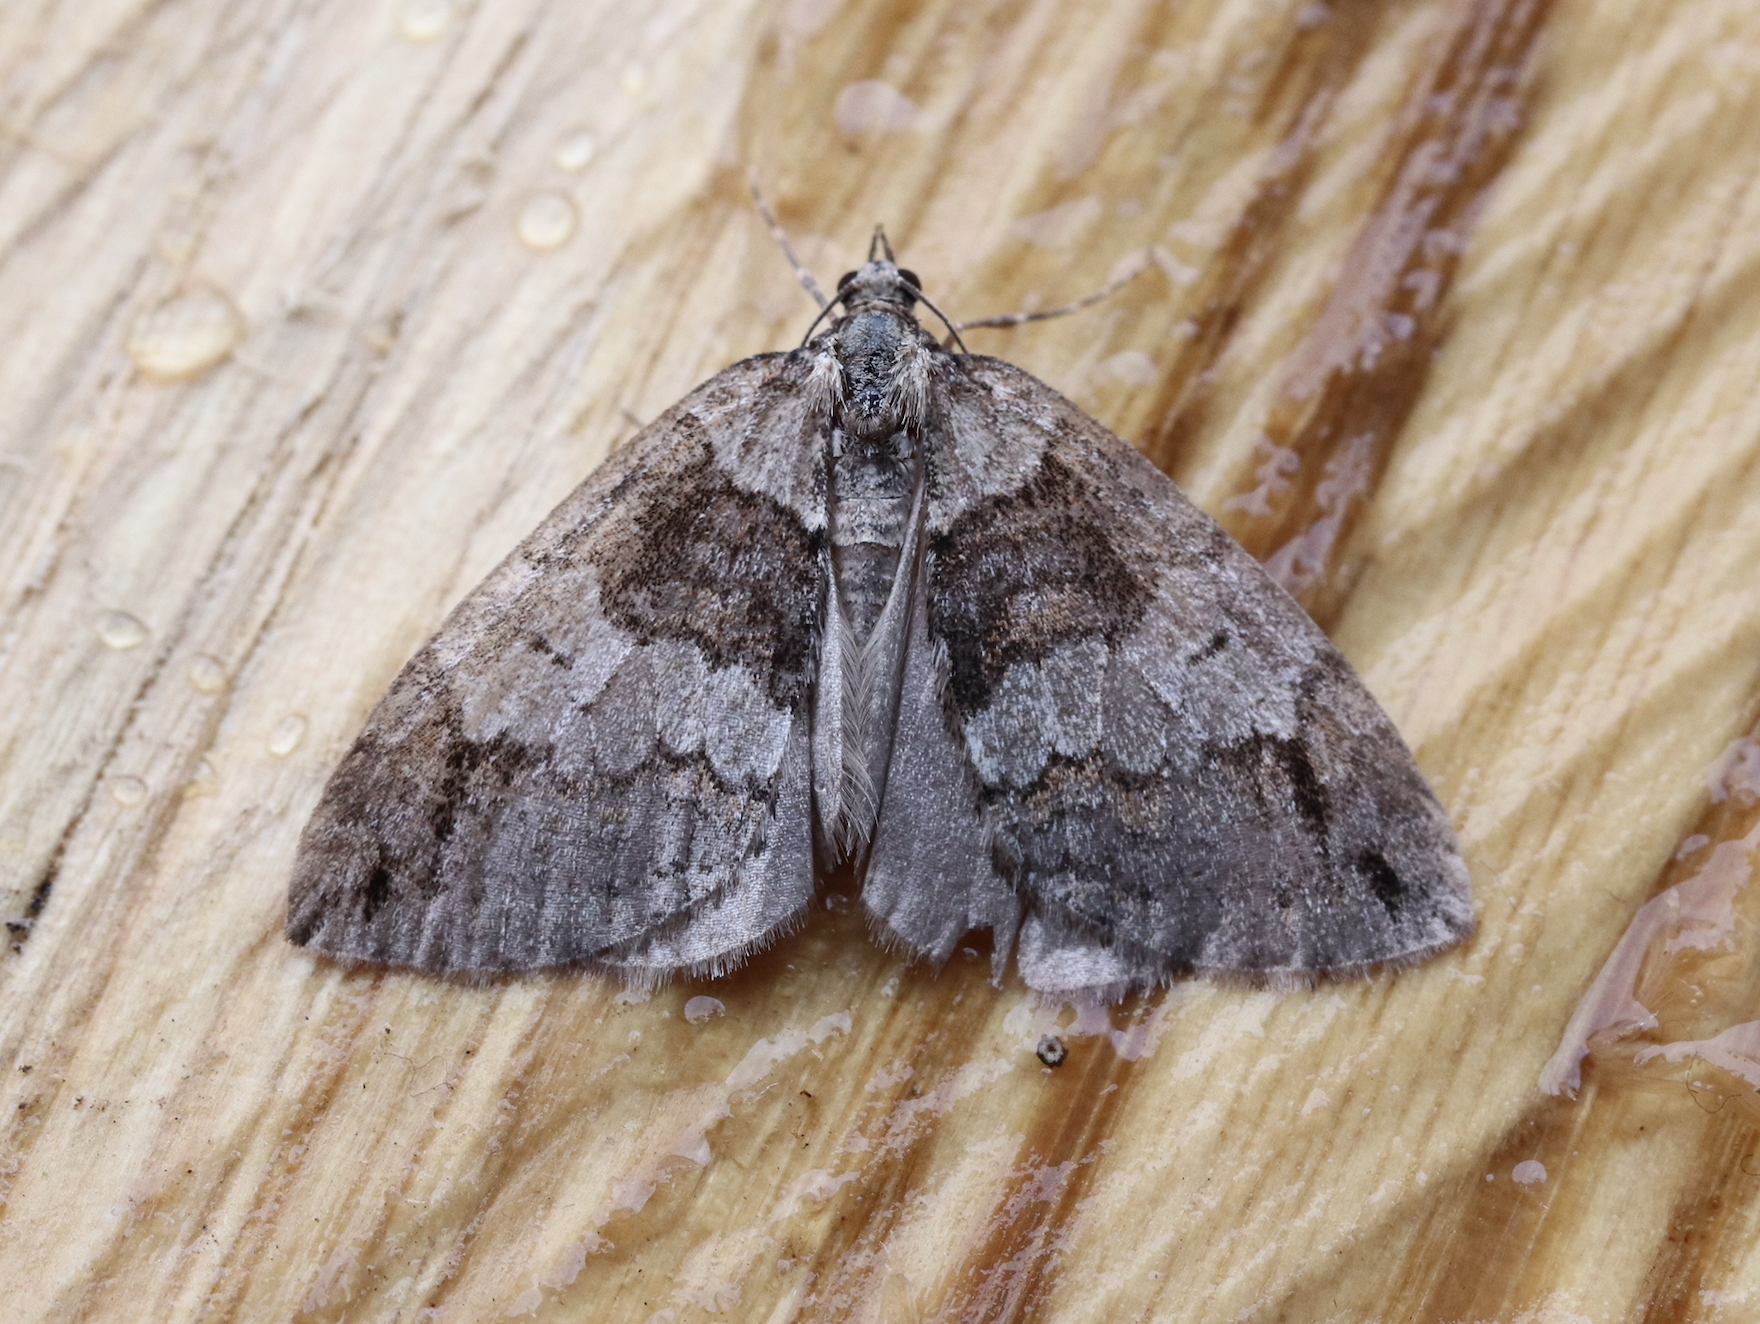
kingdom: Animalia
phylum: Arthropoda
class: Insecta
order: Lepidoptera
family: Geometridae
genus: Hydriomena
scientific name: Hydriomena impluviata
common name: May highflyer
